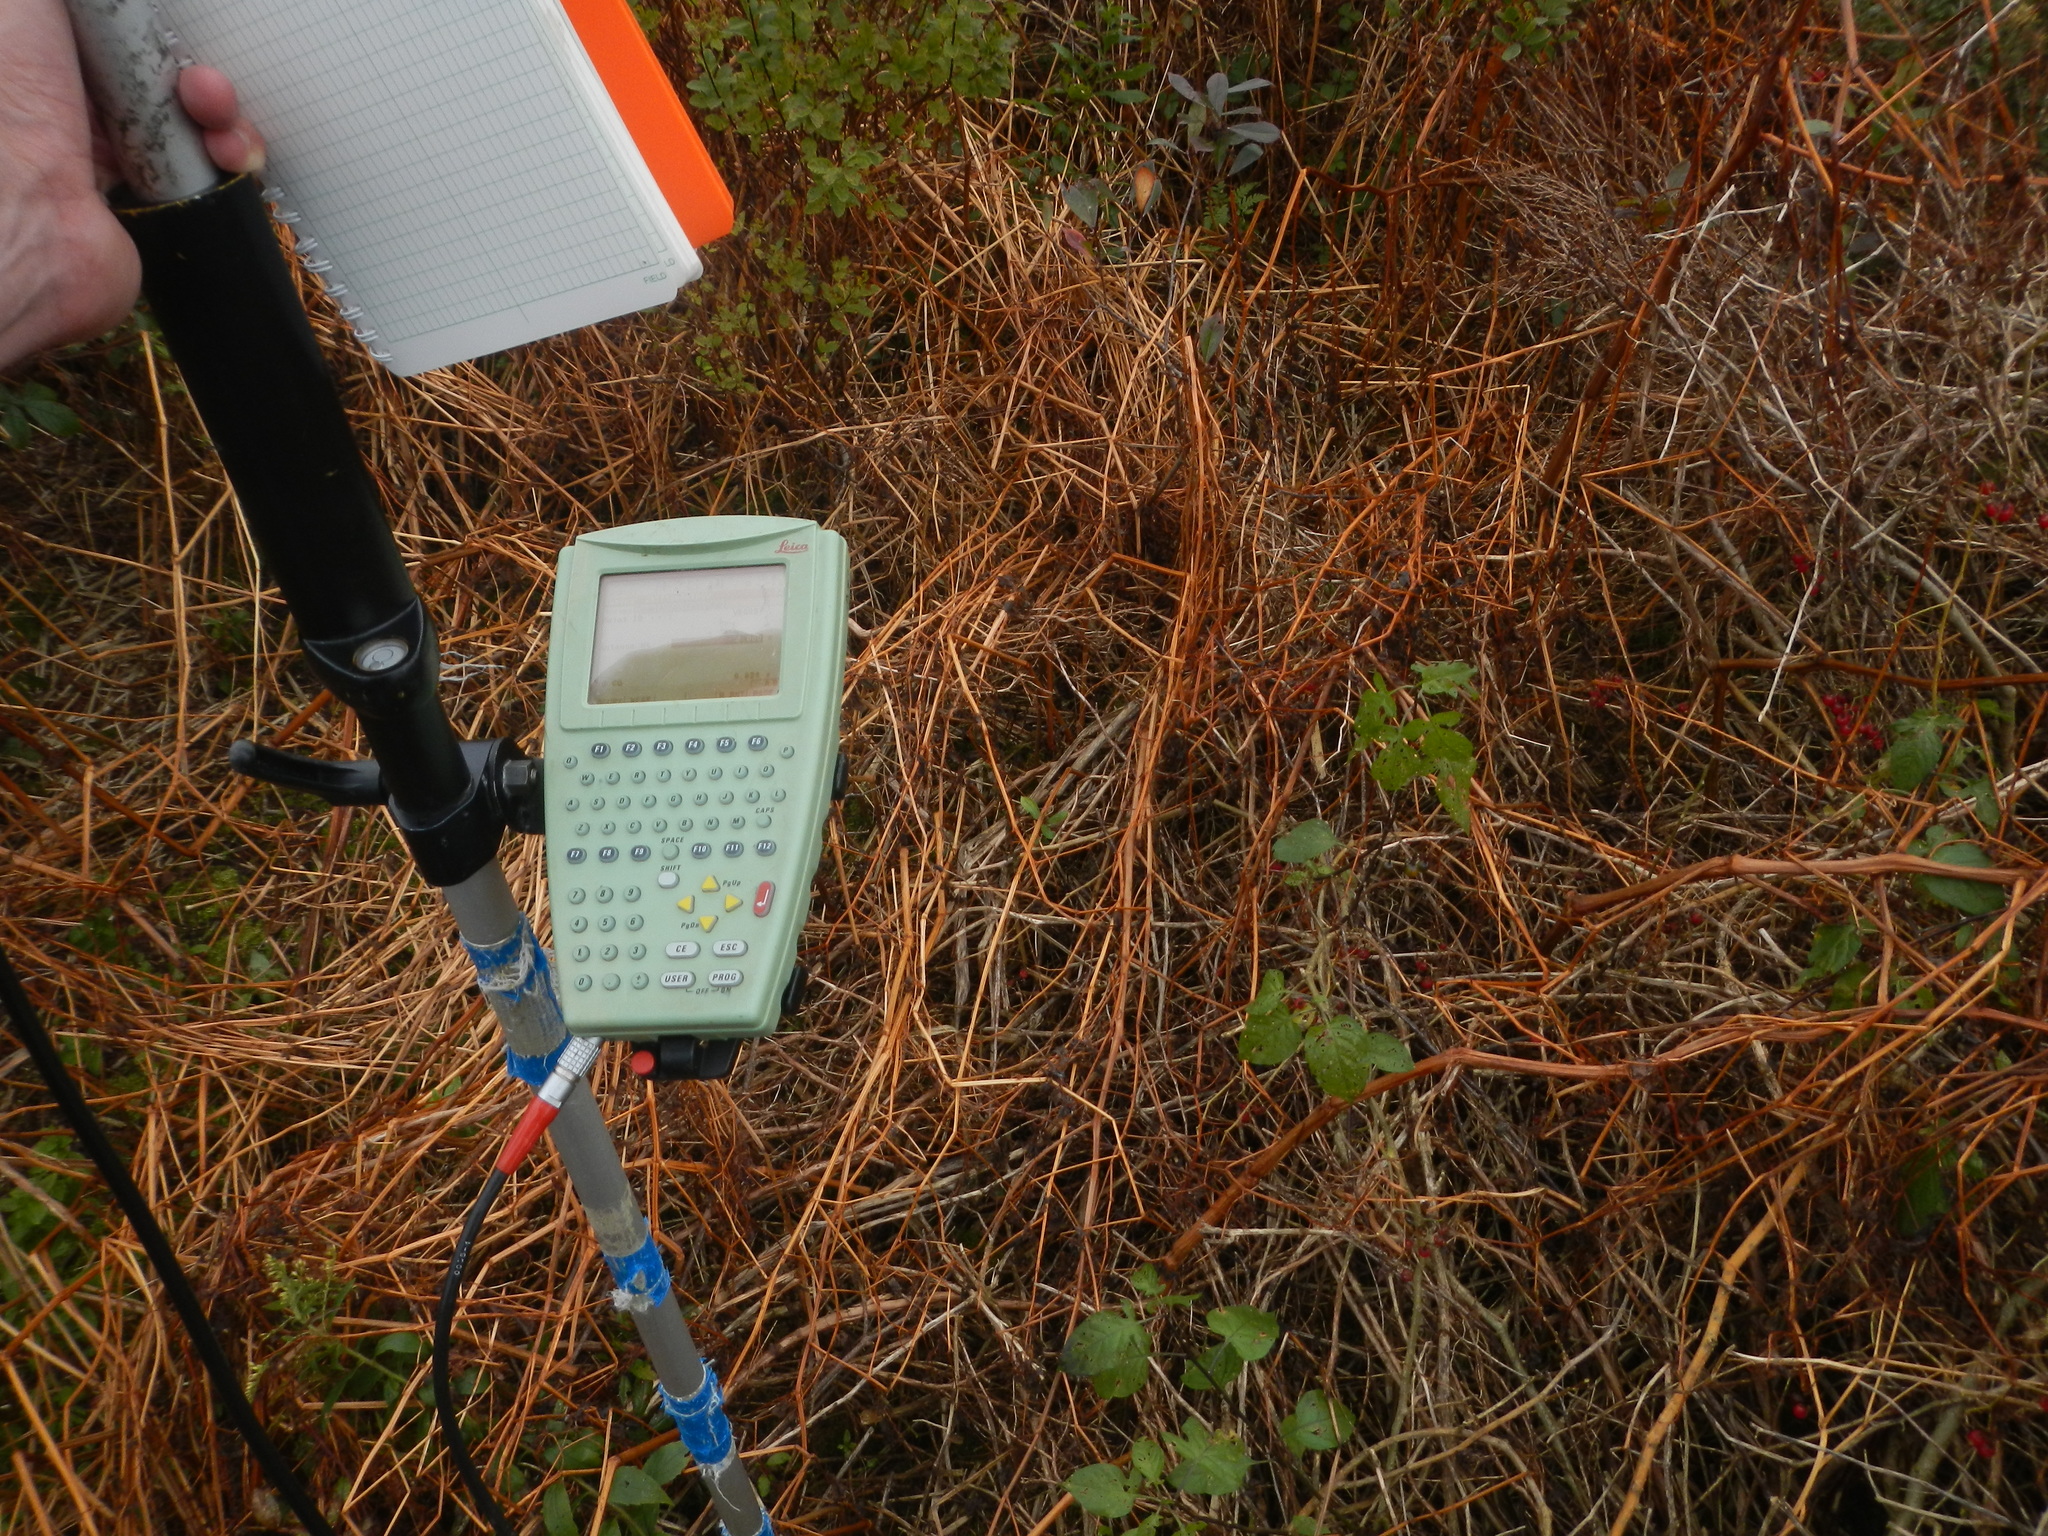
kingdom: Plantae
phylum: Tracheophyta
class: Magnoliopsida
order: Solanales
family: Solanaceae
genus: Solanum
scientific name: Solanum dulcamara
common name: Climbing nightshade
